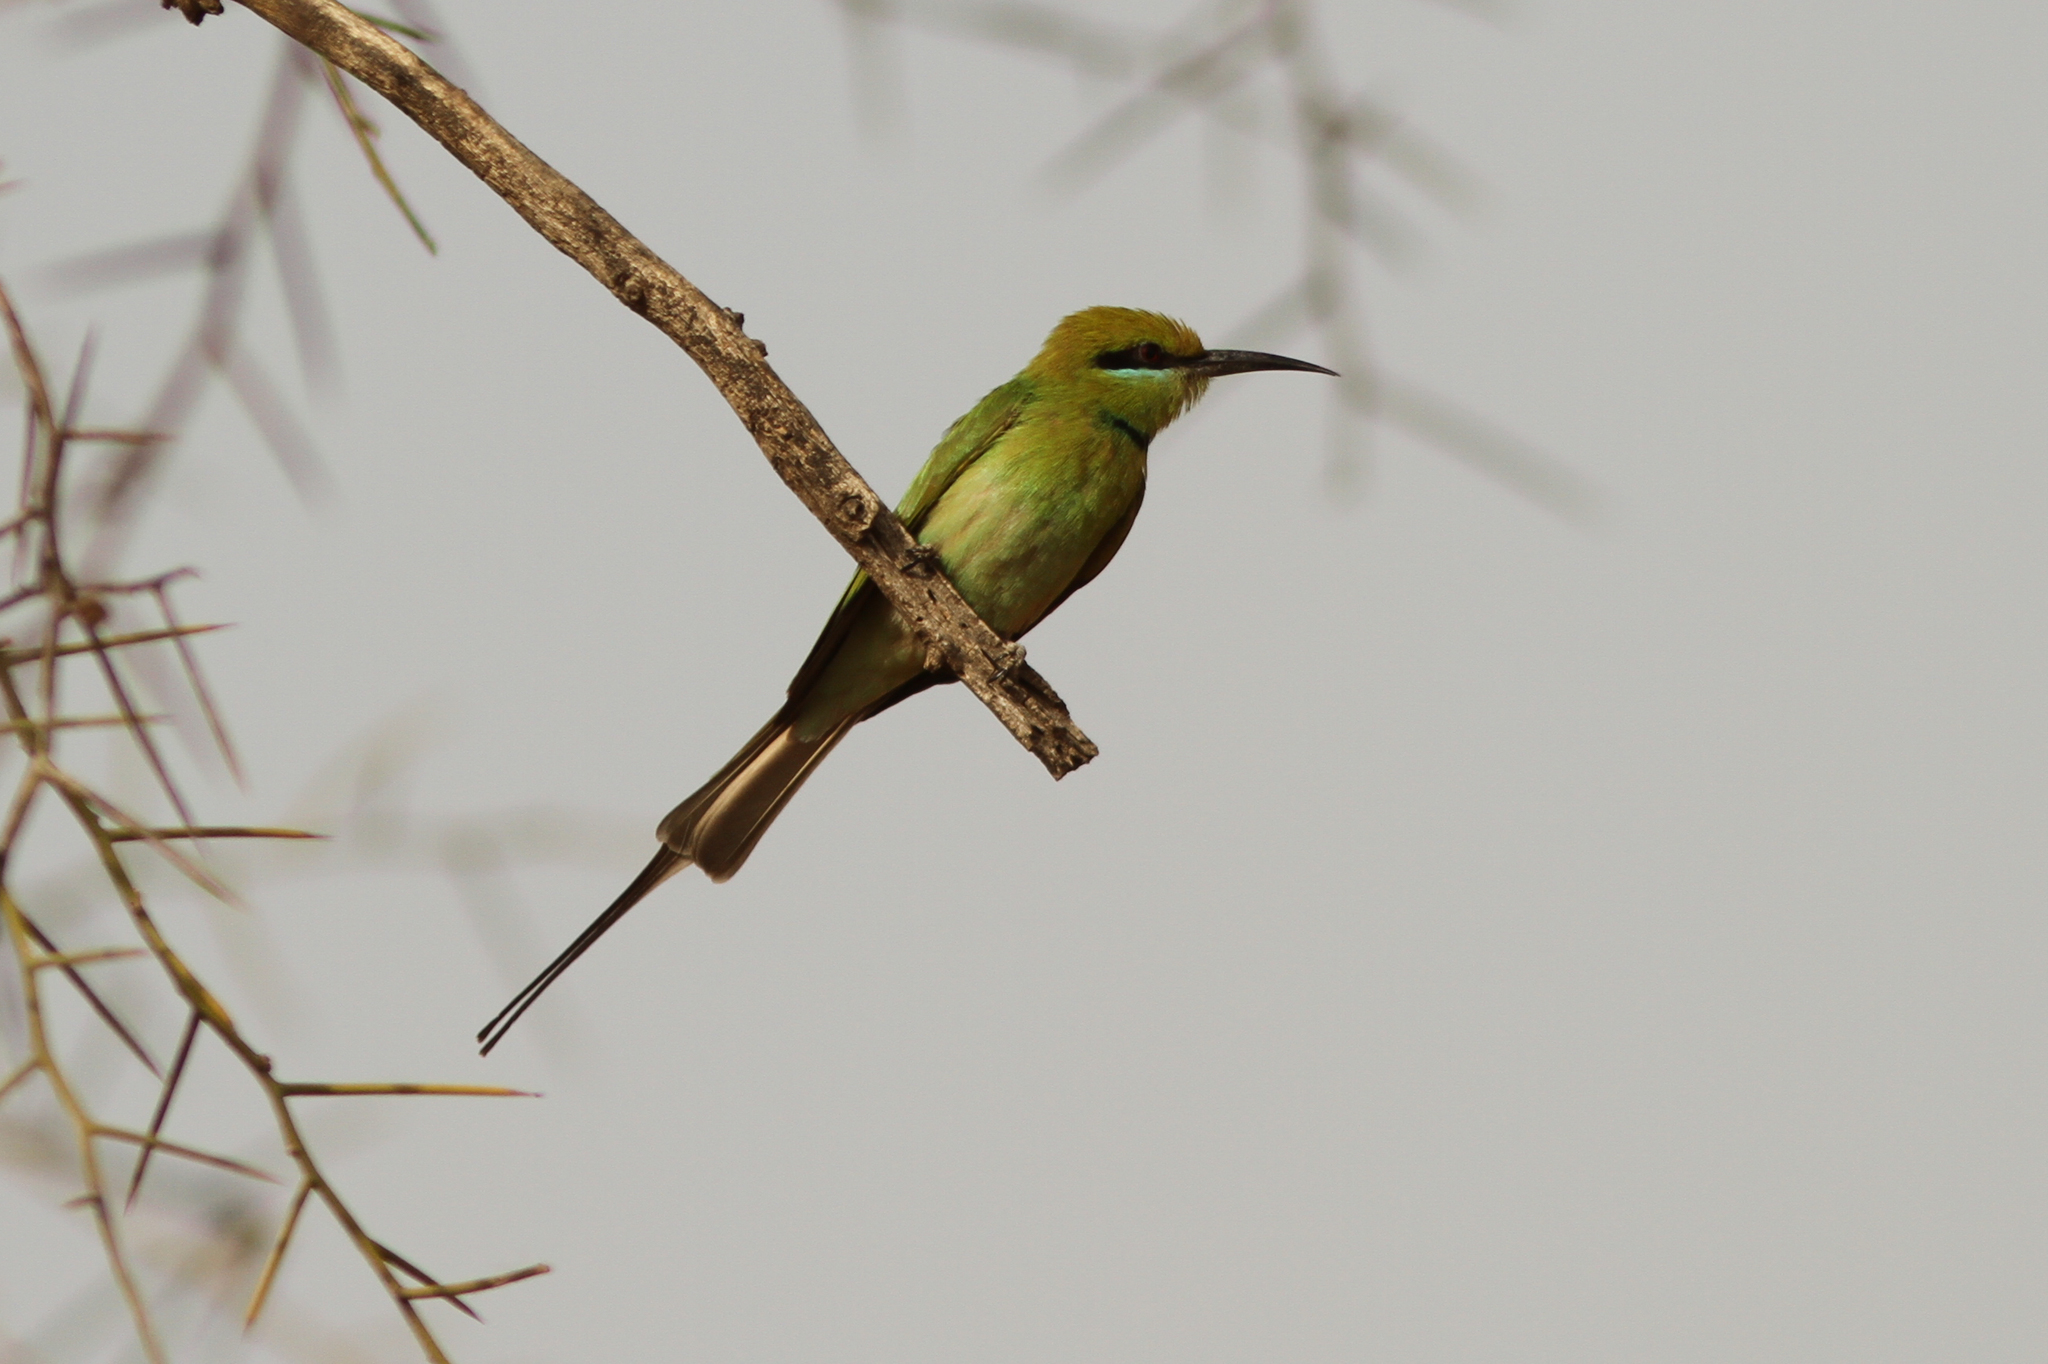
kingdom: Animalia
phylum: Chordata
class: Aves
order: Coraciiformes
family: Meropidae
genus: Merops
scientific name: Merops viridissimus
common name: African green bee-eater
